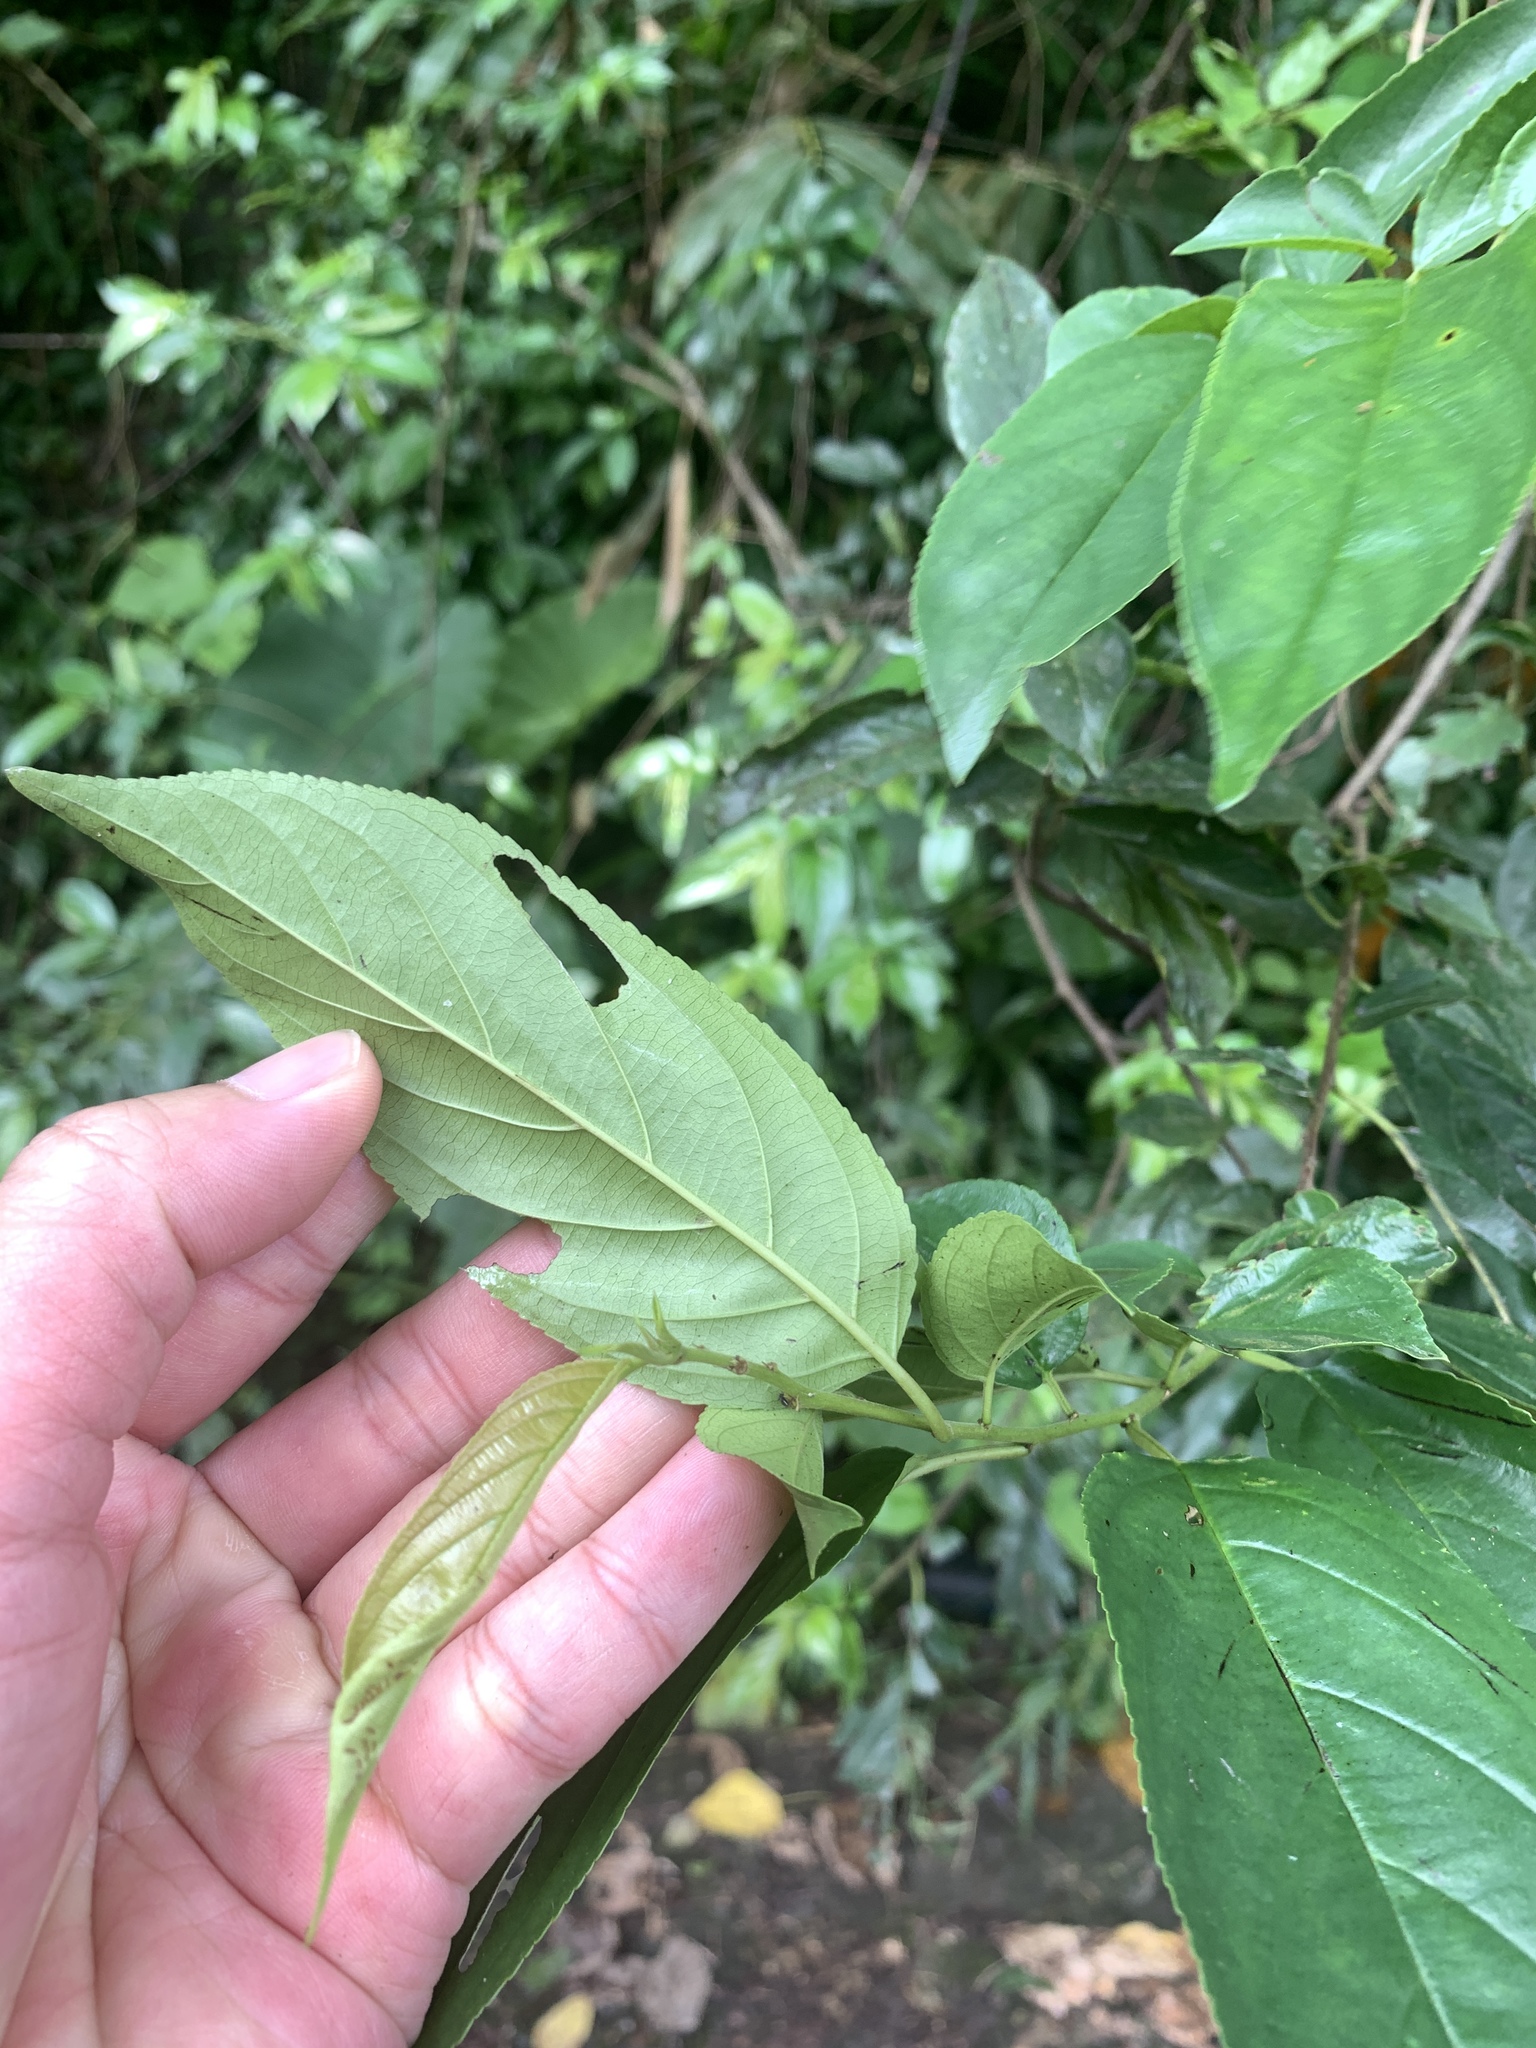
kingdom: Plantae
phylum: Tracheophyta
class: Magnoliopsida
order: Rosales
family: Rhamnaceae
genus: Rhamnus
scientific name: Rhamnus formosana
